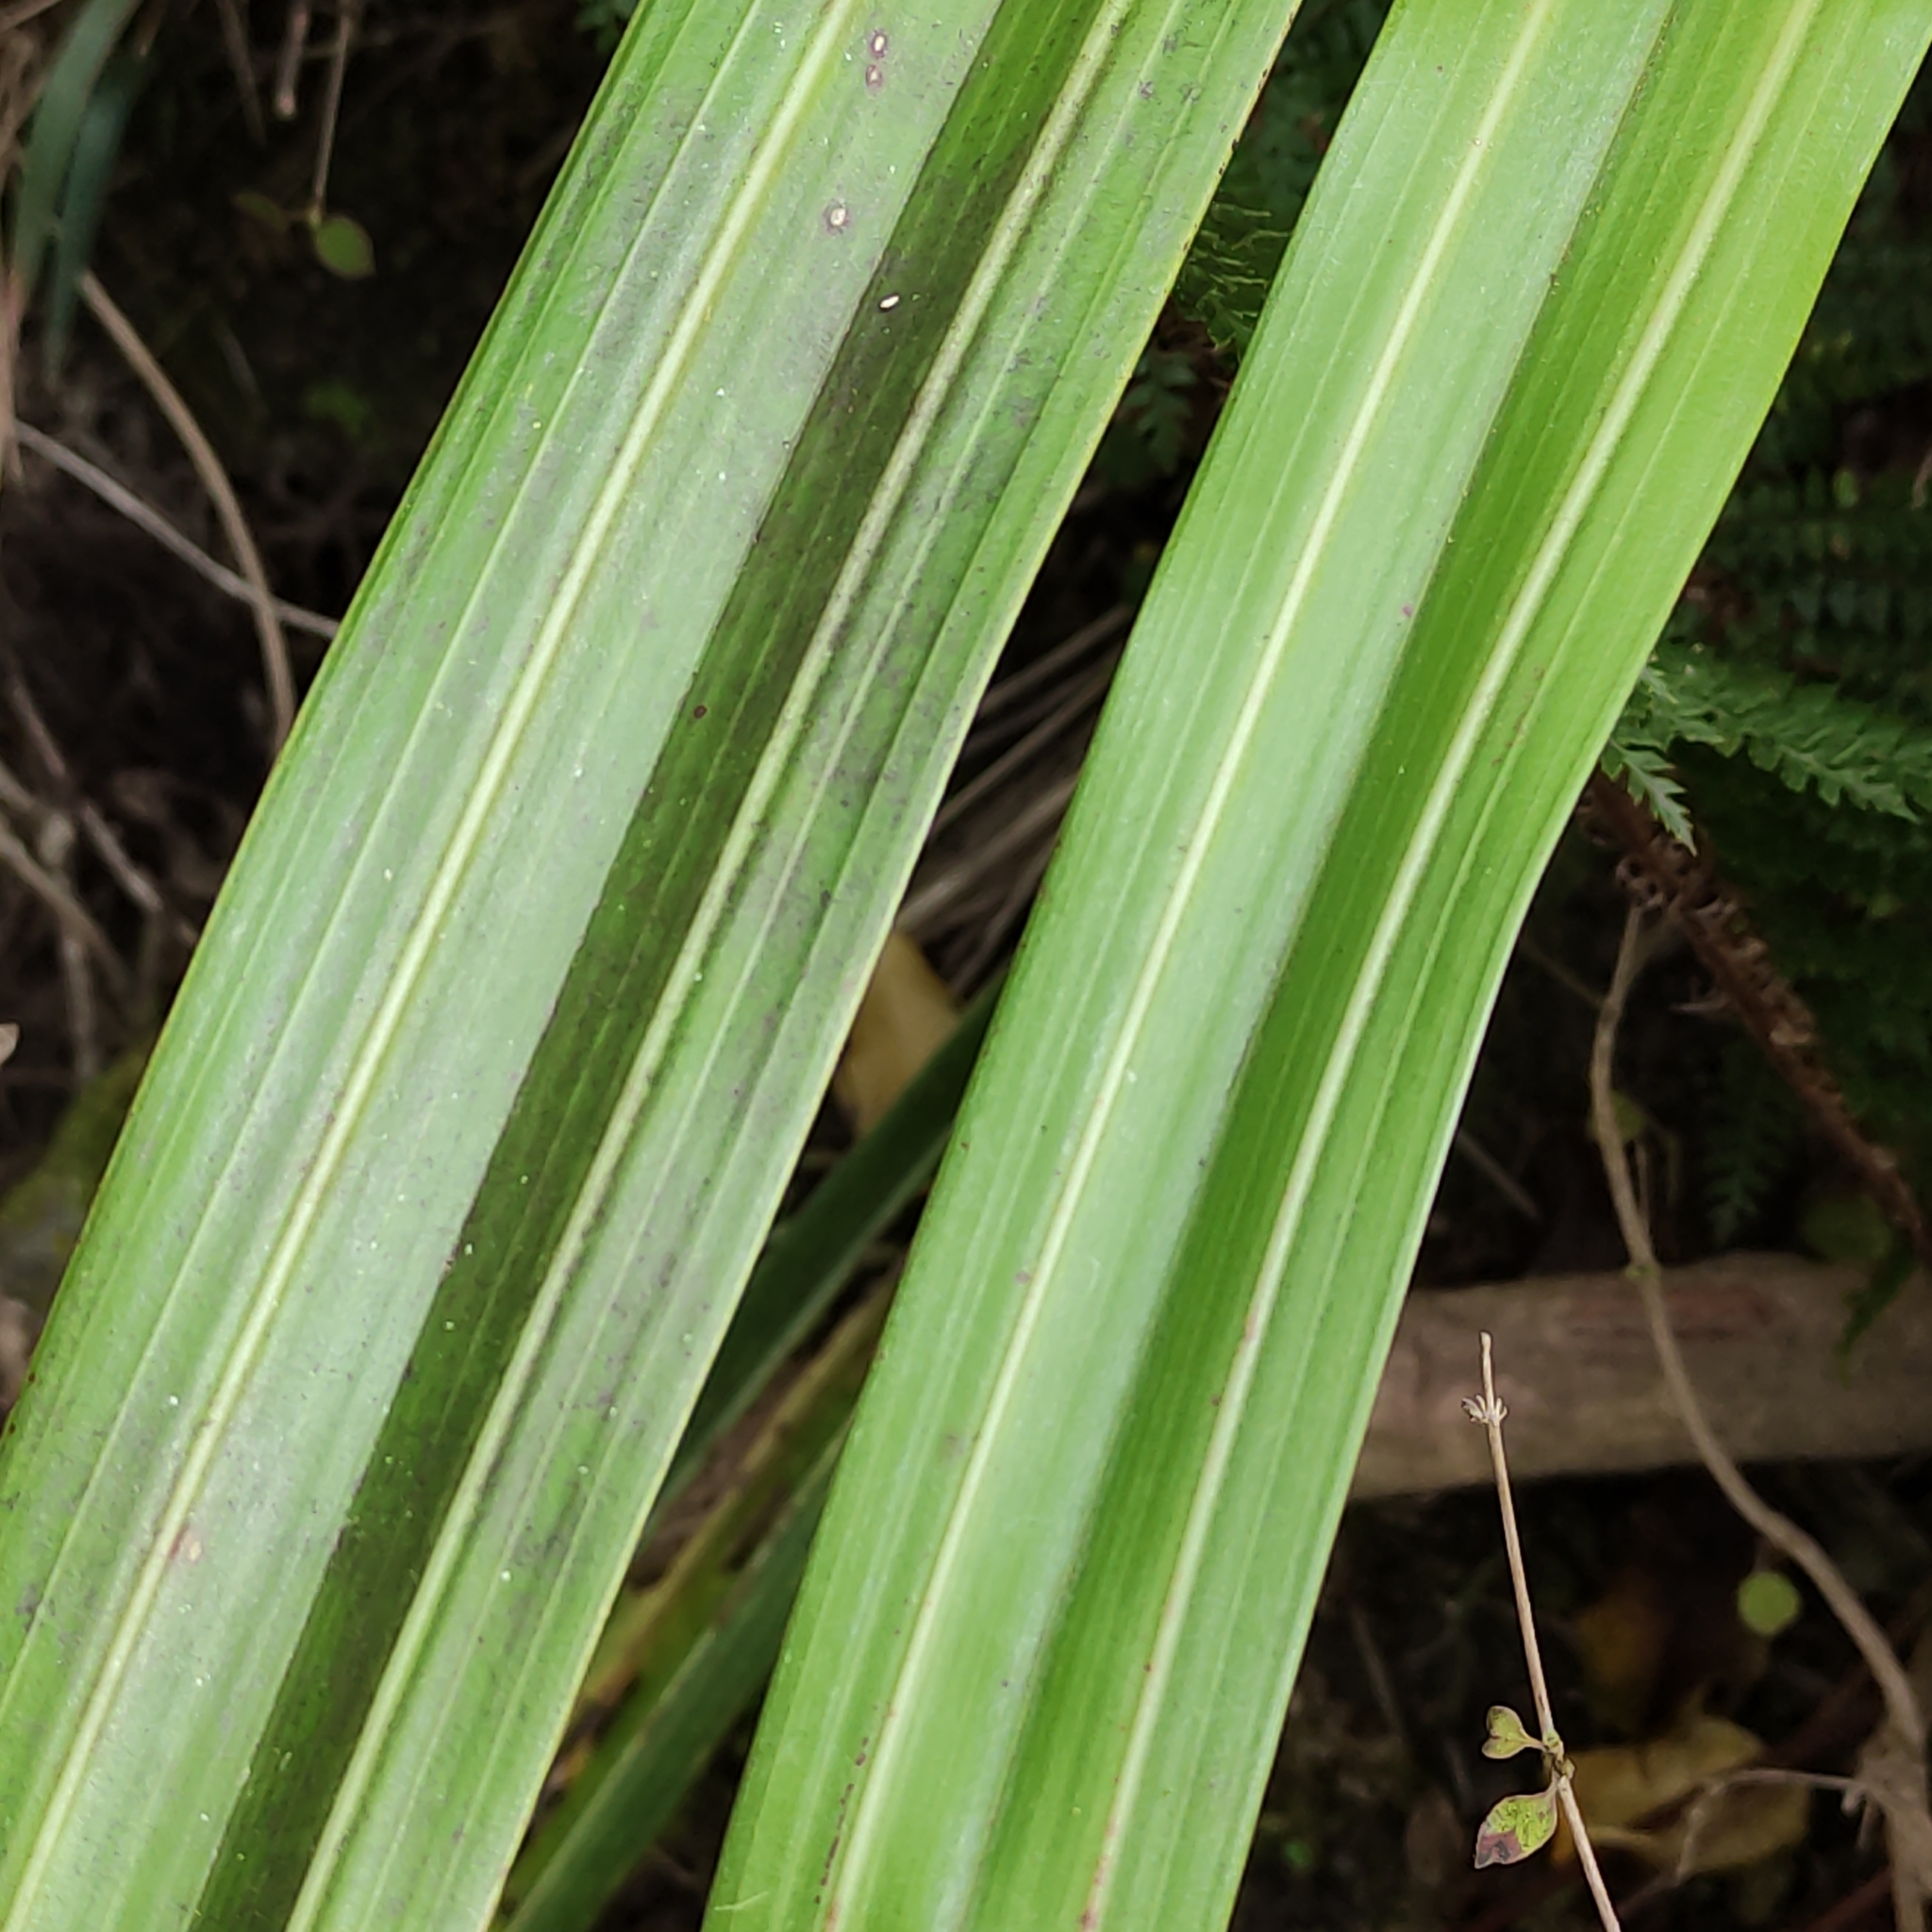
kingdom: Plantae
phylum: Tracheophyta
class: Liliopsida
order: Asparagales
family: Asteliaceae
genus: Astelia
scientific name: Astelia fragrans
